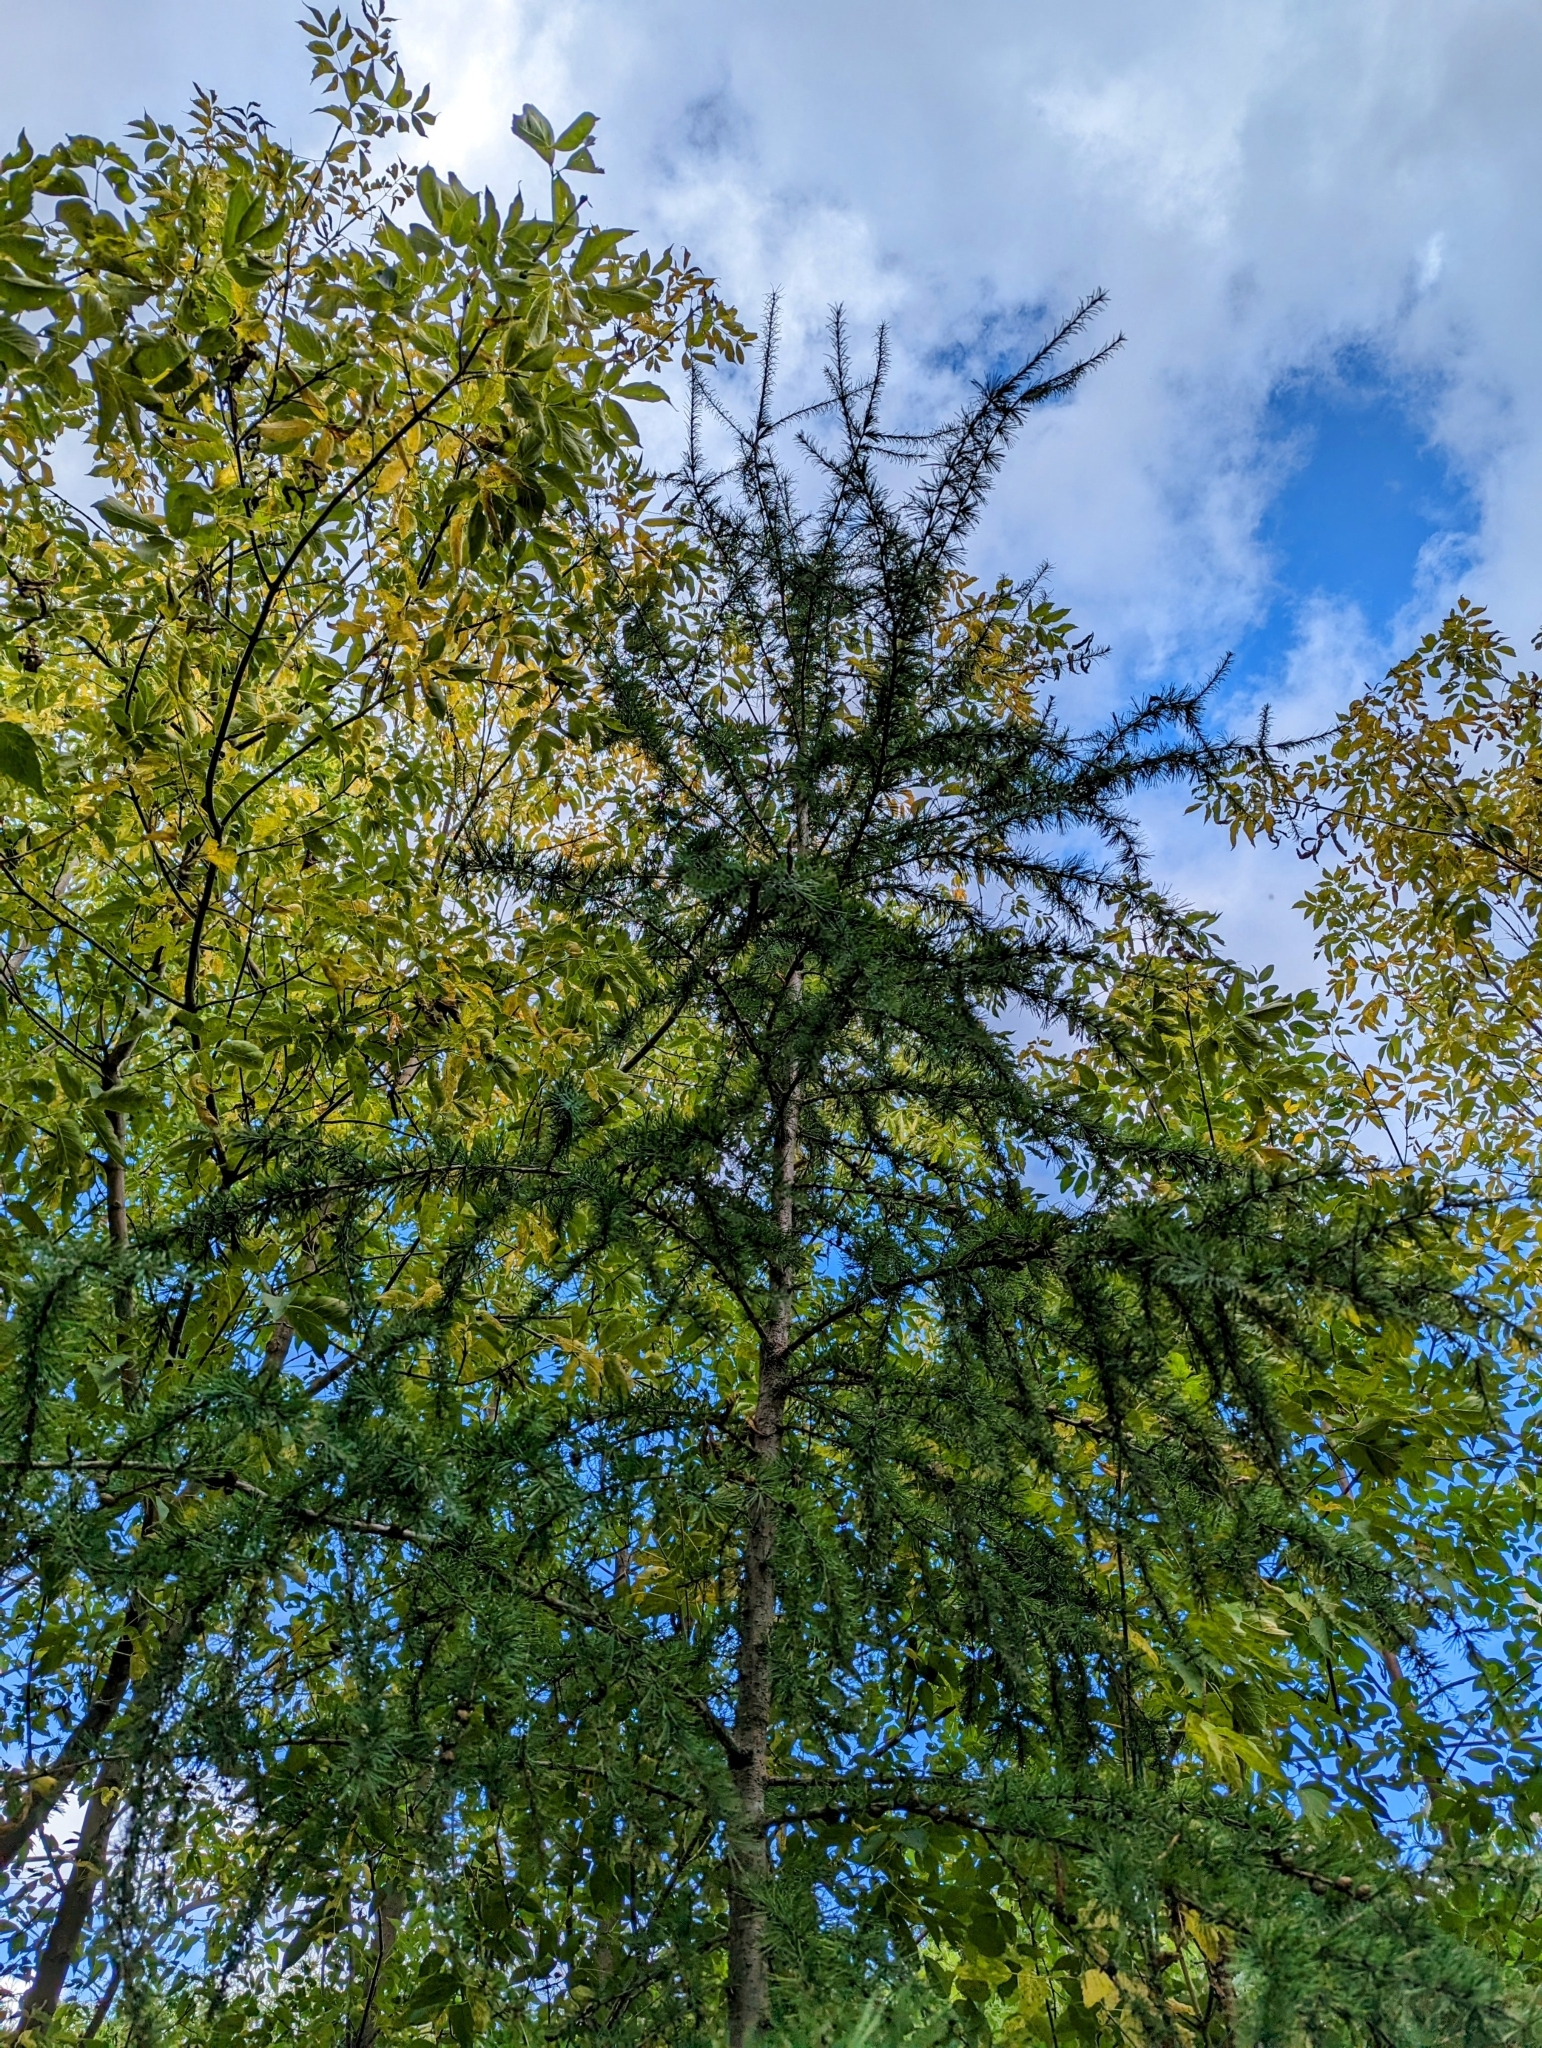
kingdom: Plantae
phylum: Tracheophyta
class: Pinopsida
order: Pinales
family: Pinaceae
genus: Larix
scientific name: Larix laricina
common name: American larch
